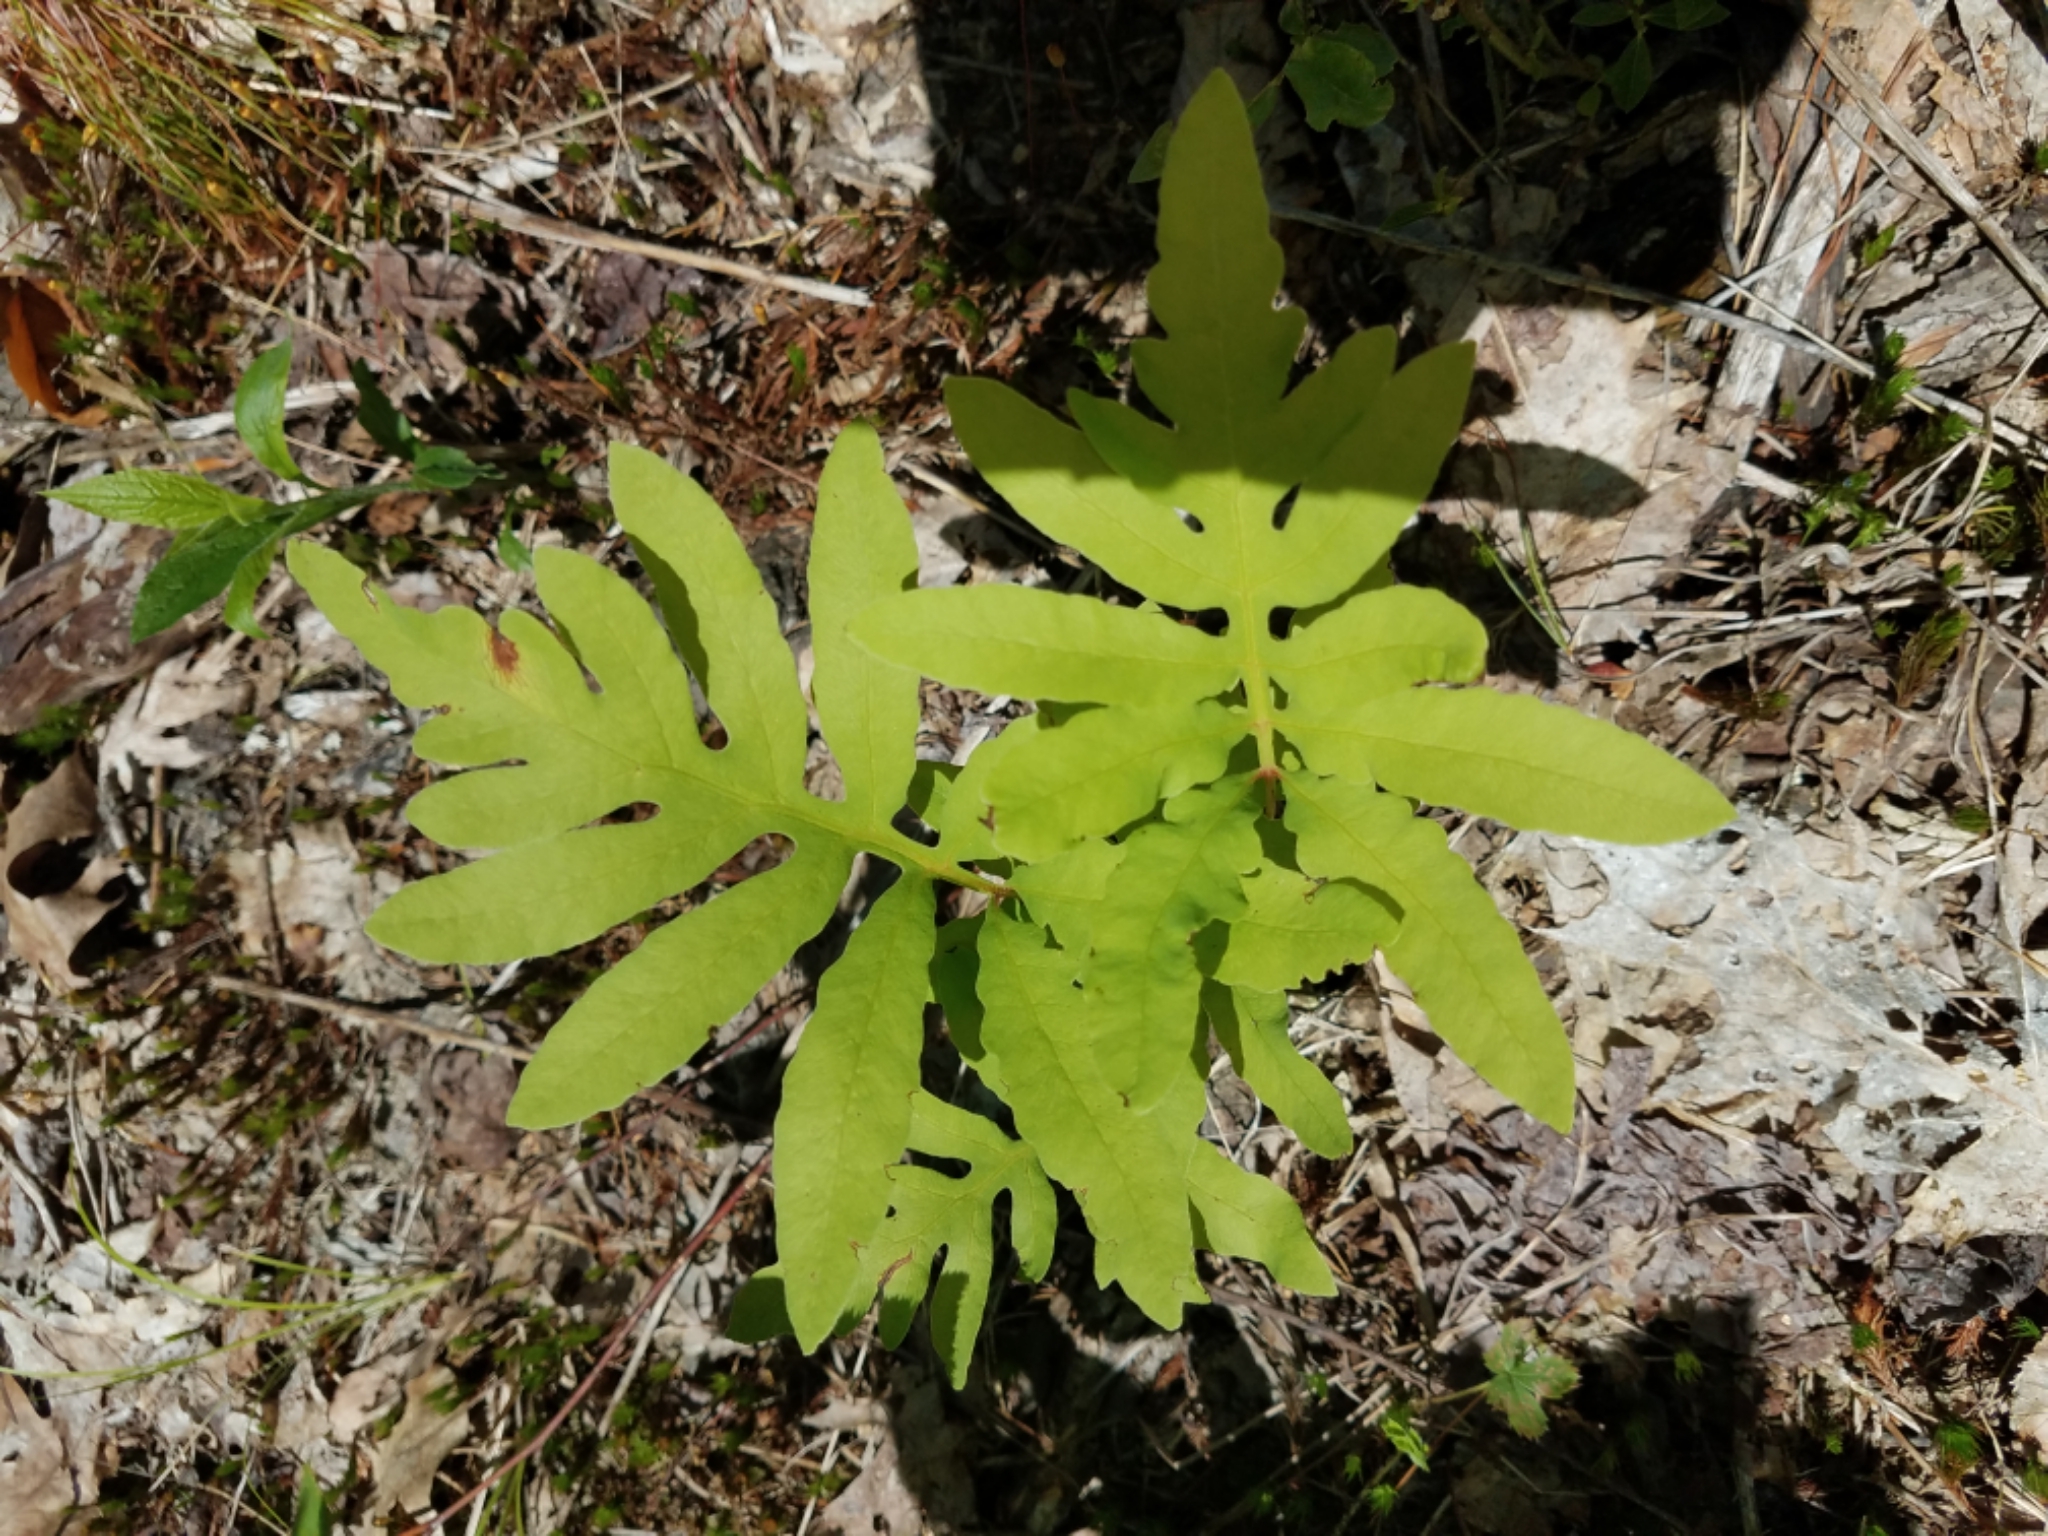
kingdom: Plantae
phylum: Tracheophyta
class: Polypodiopsida
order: Polypodiales
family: Onocleaceae
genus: Onoclea
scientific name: Onoclea sensibilis
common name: Sensitive fern
